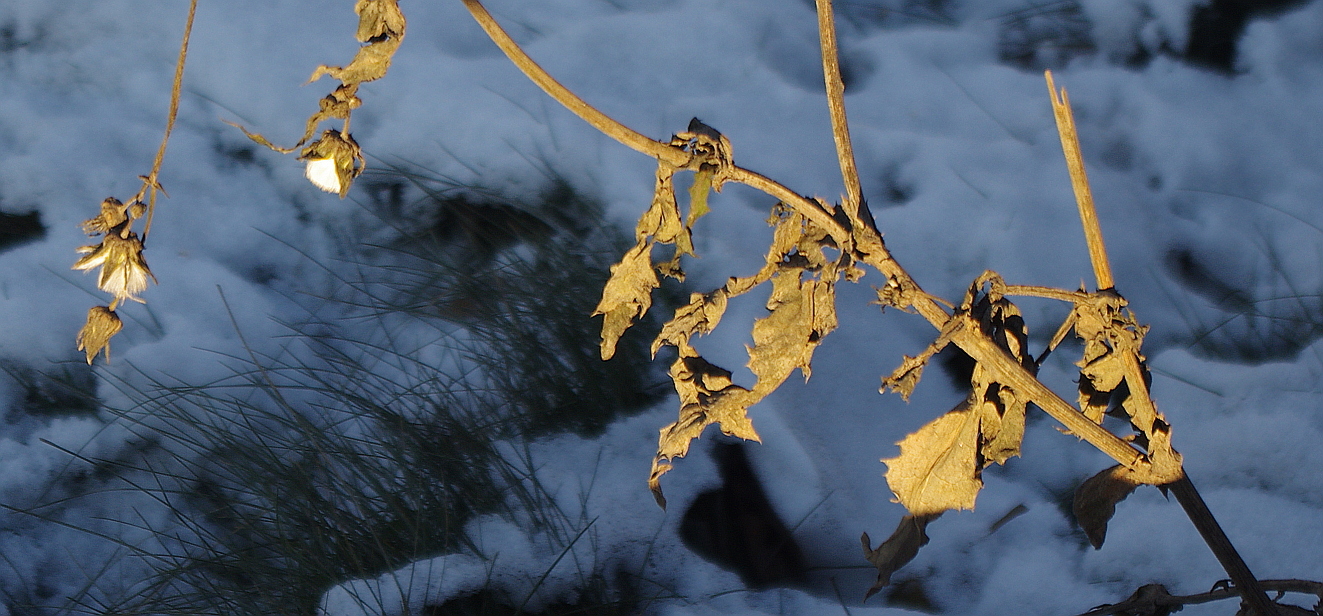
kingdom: Plantae
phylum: Tracheophyta
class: Magnoliopsida
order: Asterales
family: Asteraceae
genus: Sonchus
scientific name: Sonchus oleraceus
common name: Common sowthistle
